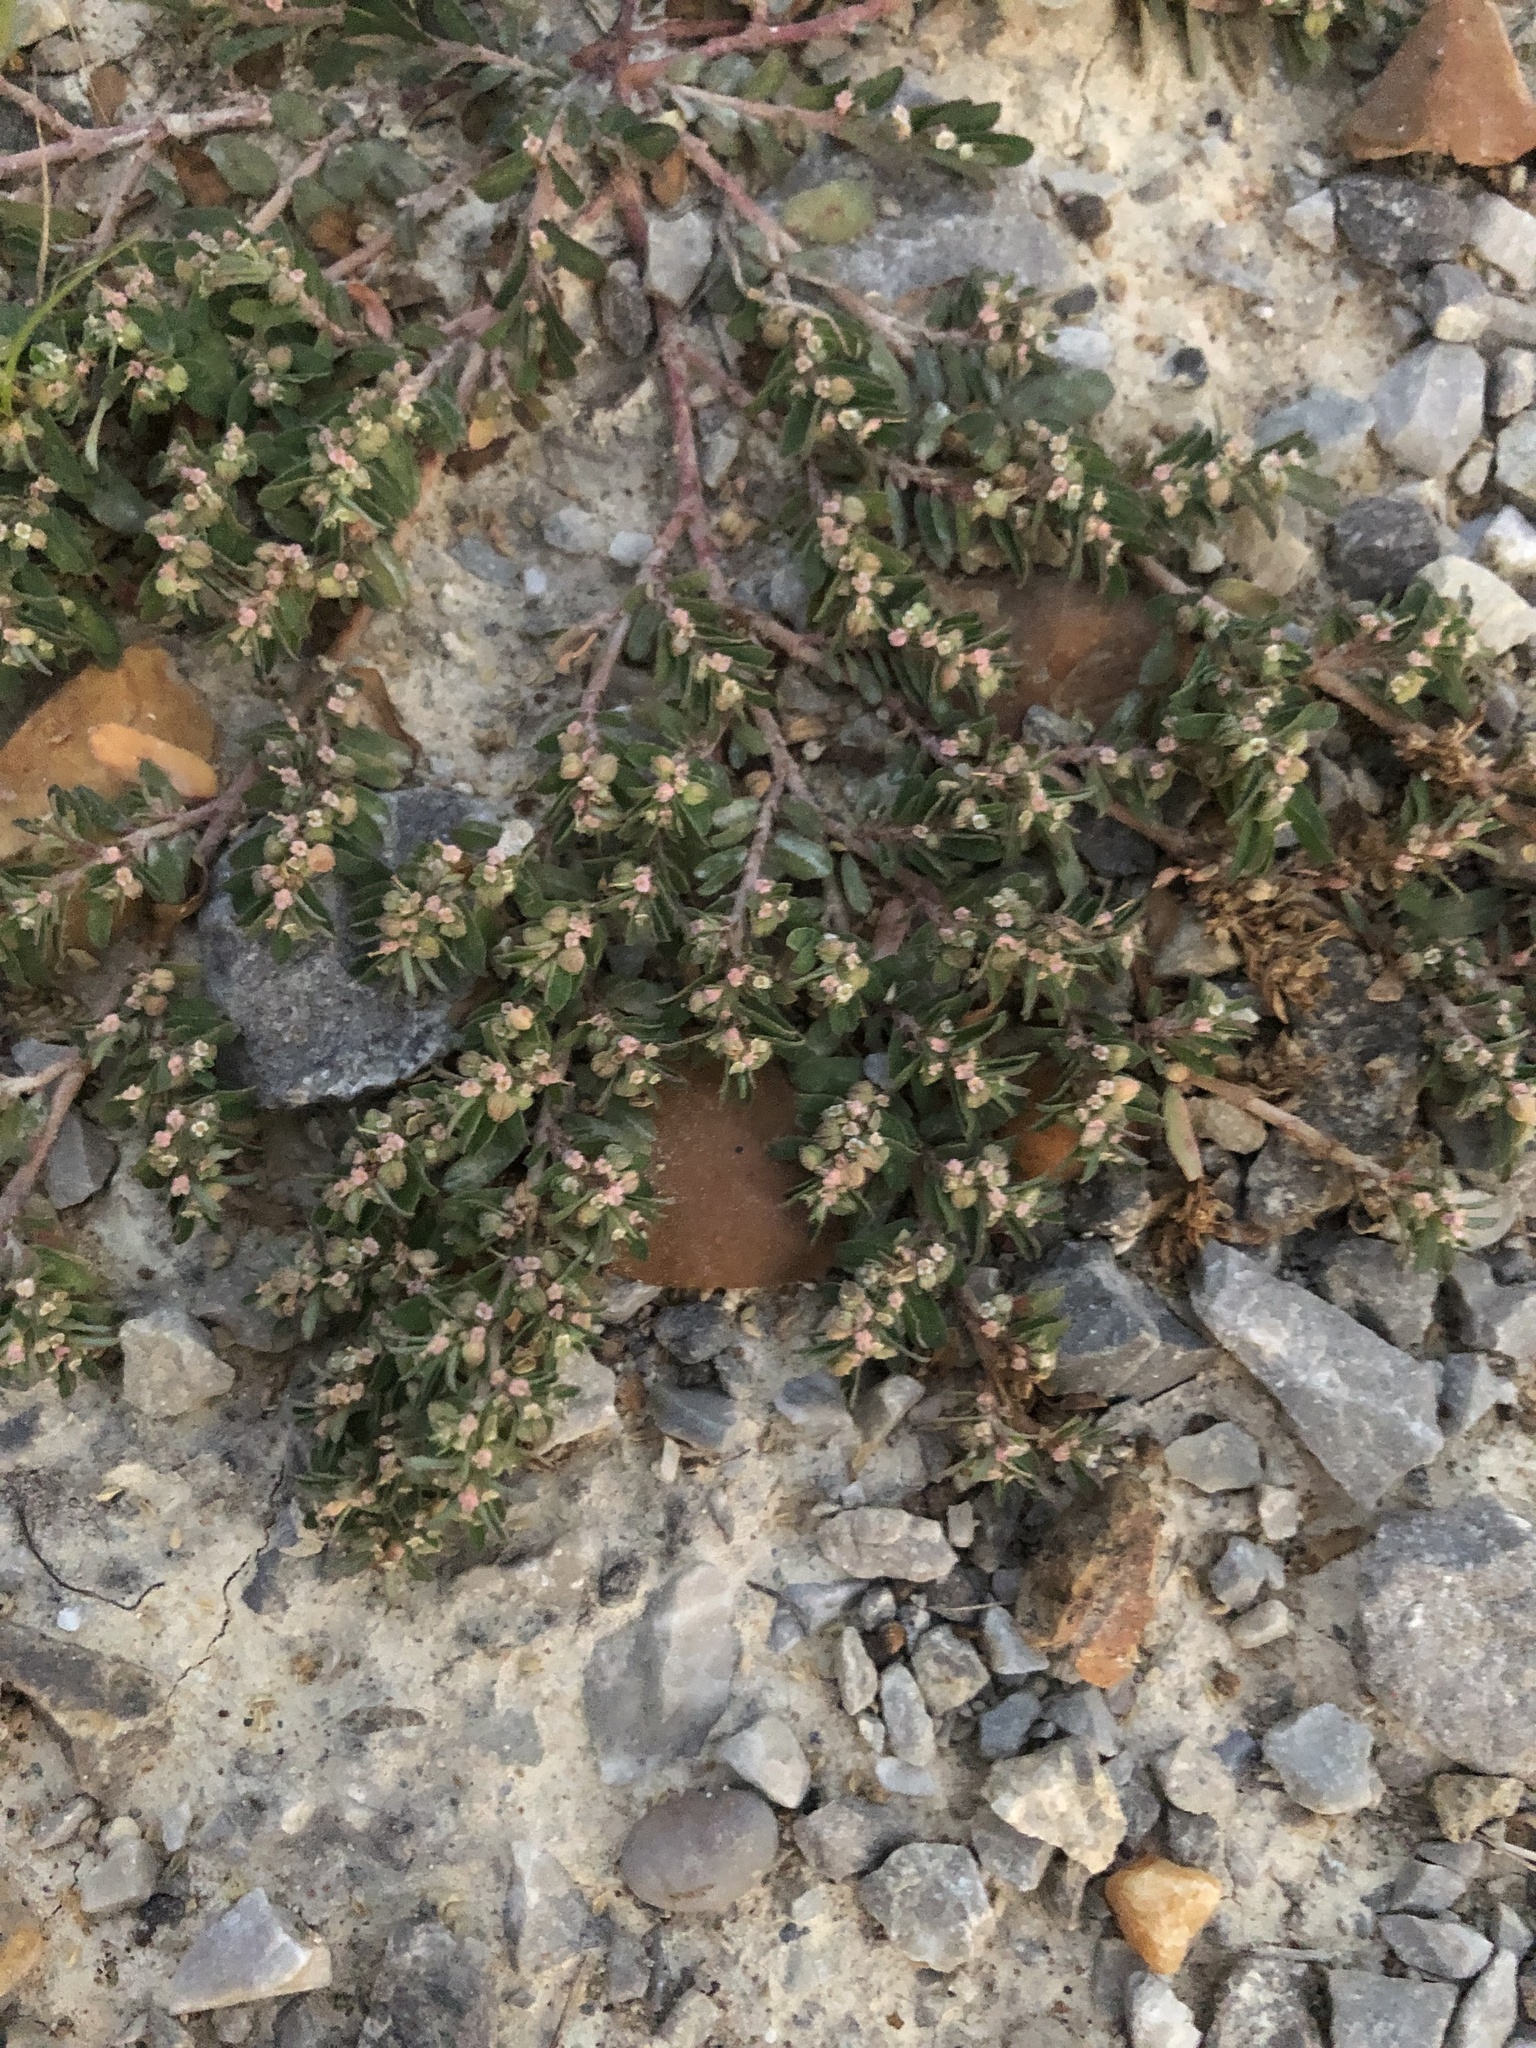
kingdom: Plantae
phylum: Tracheophyta
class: Magnoliopsida
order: Malpighiales
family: Euphorbiaceae
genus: Euphorbia
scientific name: Euphorbia maculata
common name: Spotted spurge
